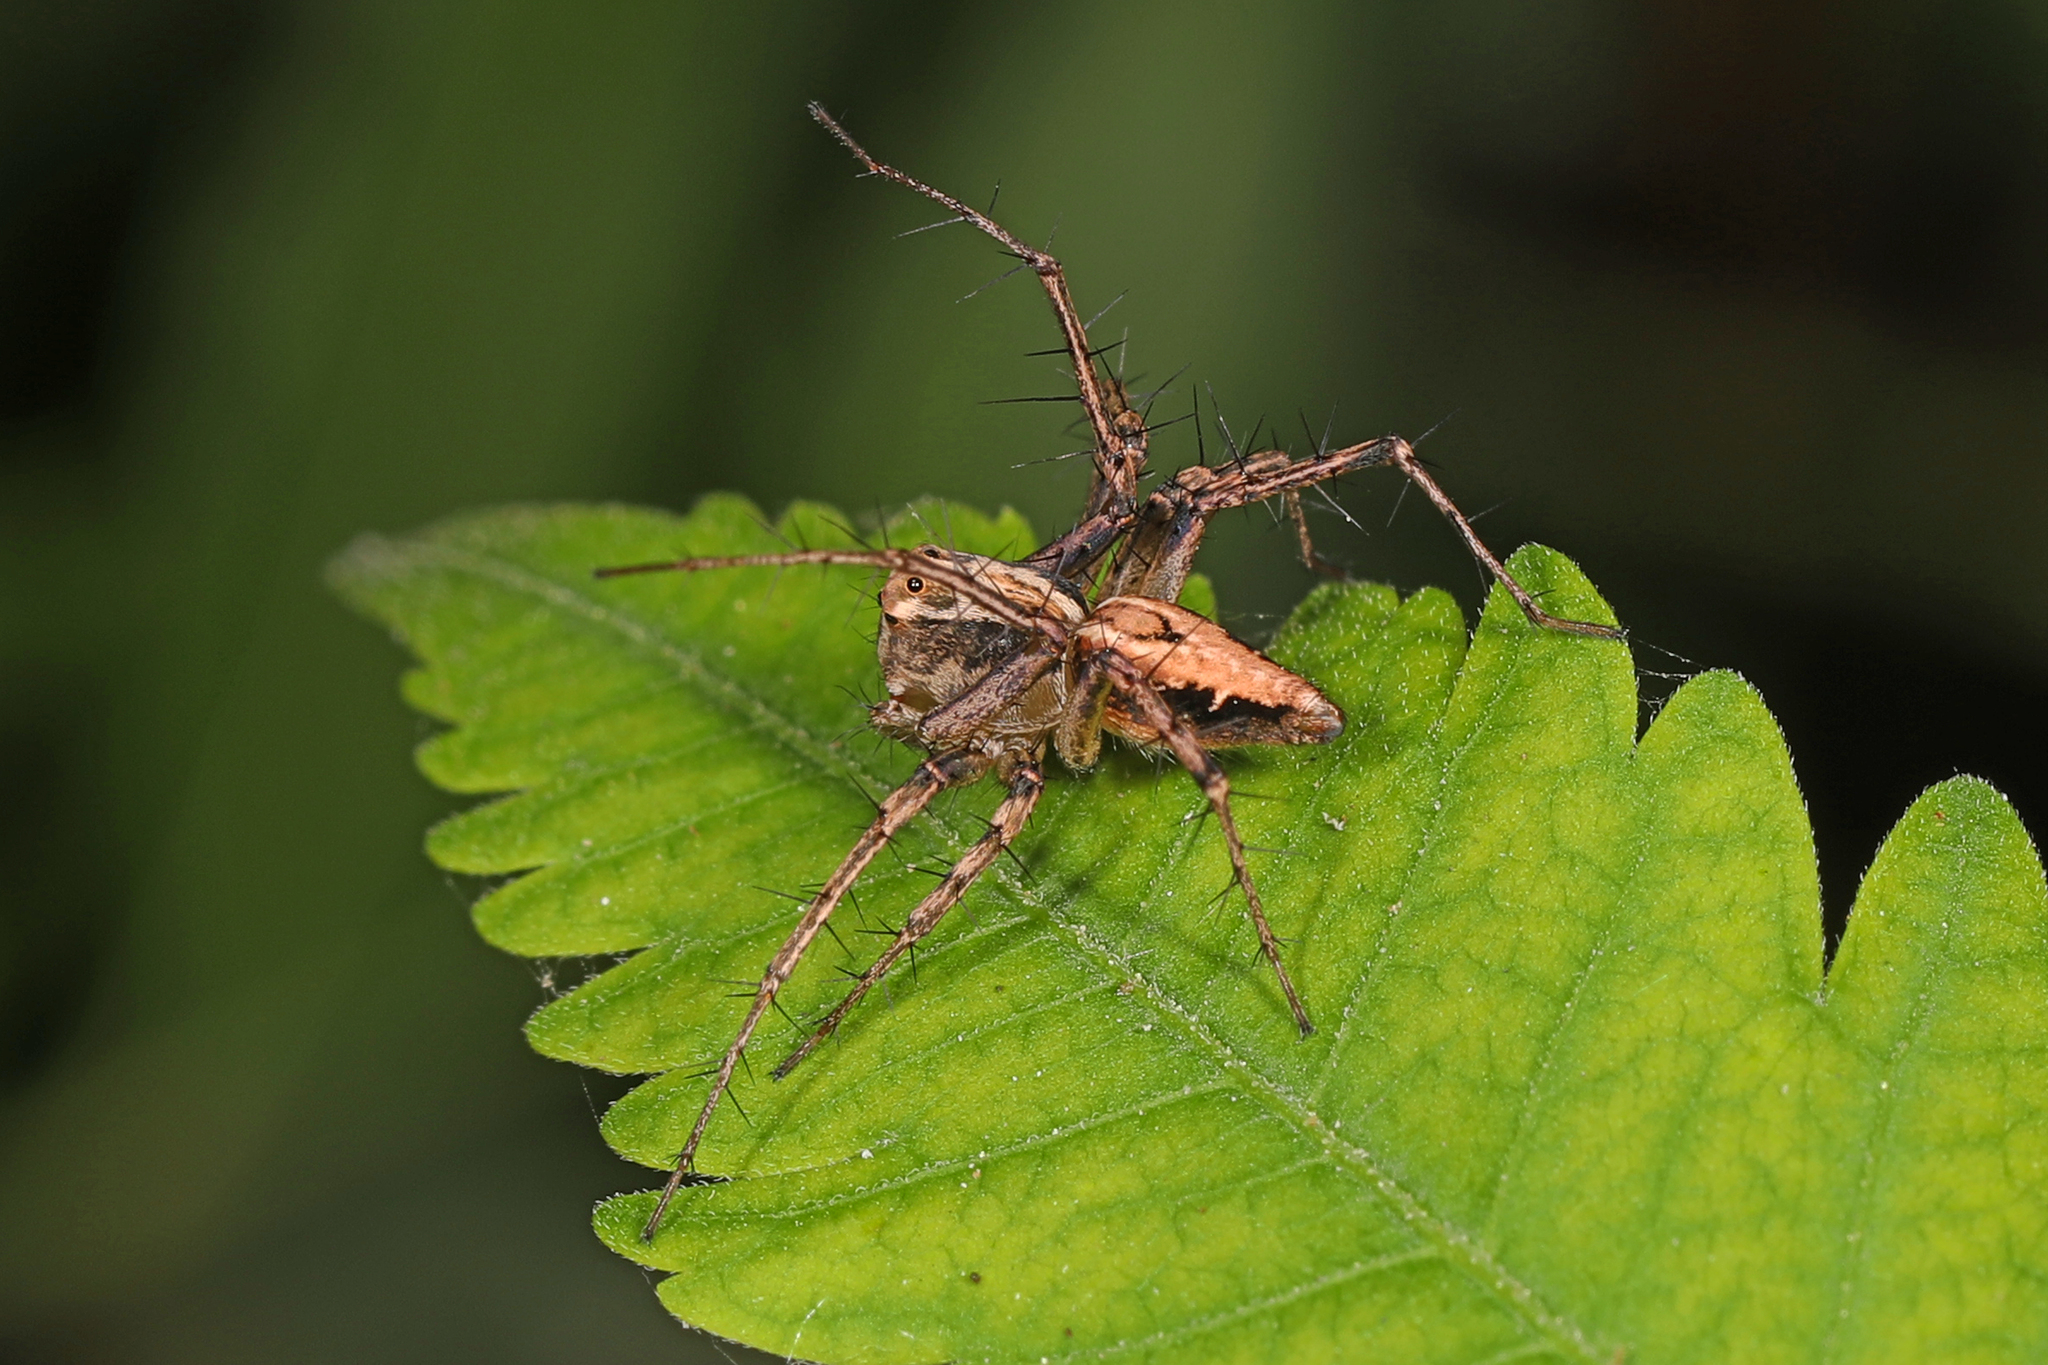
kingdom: Animalia
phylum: Arthropoda
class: Arachnida
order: Araneae
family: Oxyopidae
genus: Oxyopes
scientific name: Oxyopes salticus
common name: Lynx spiders
